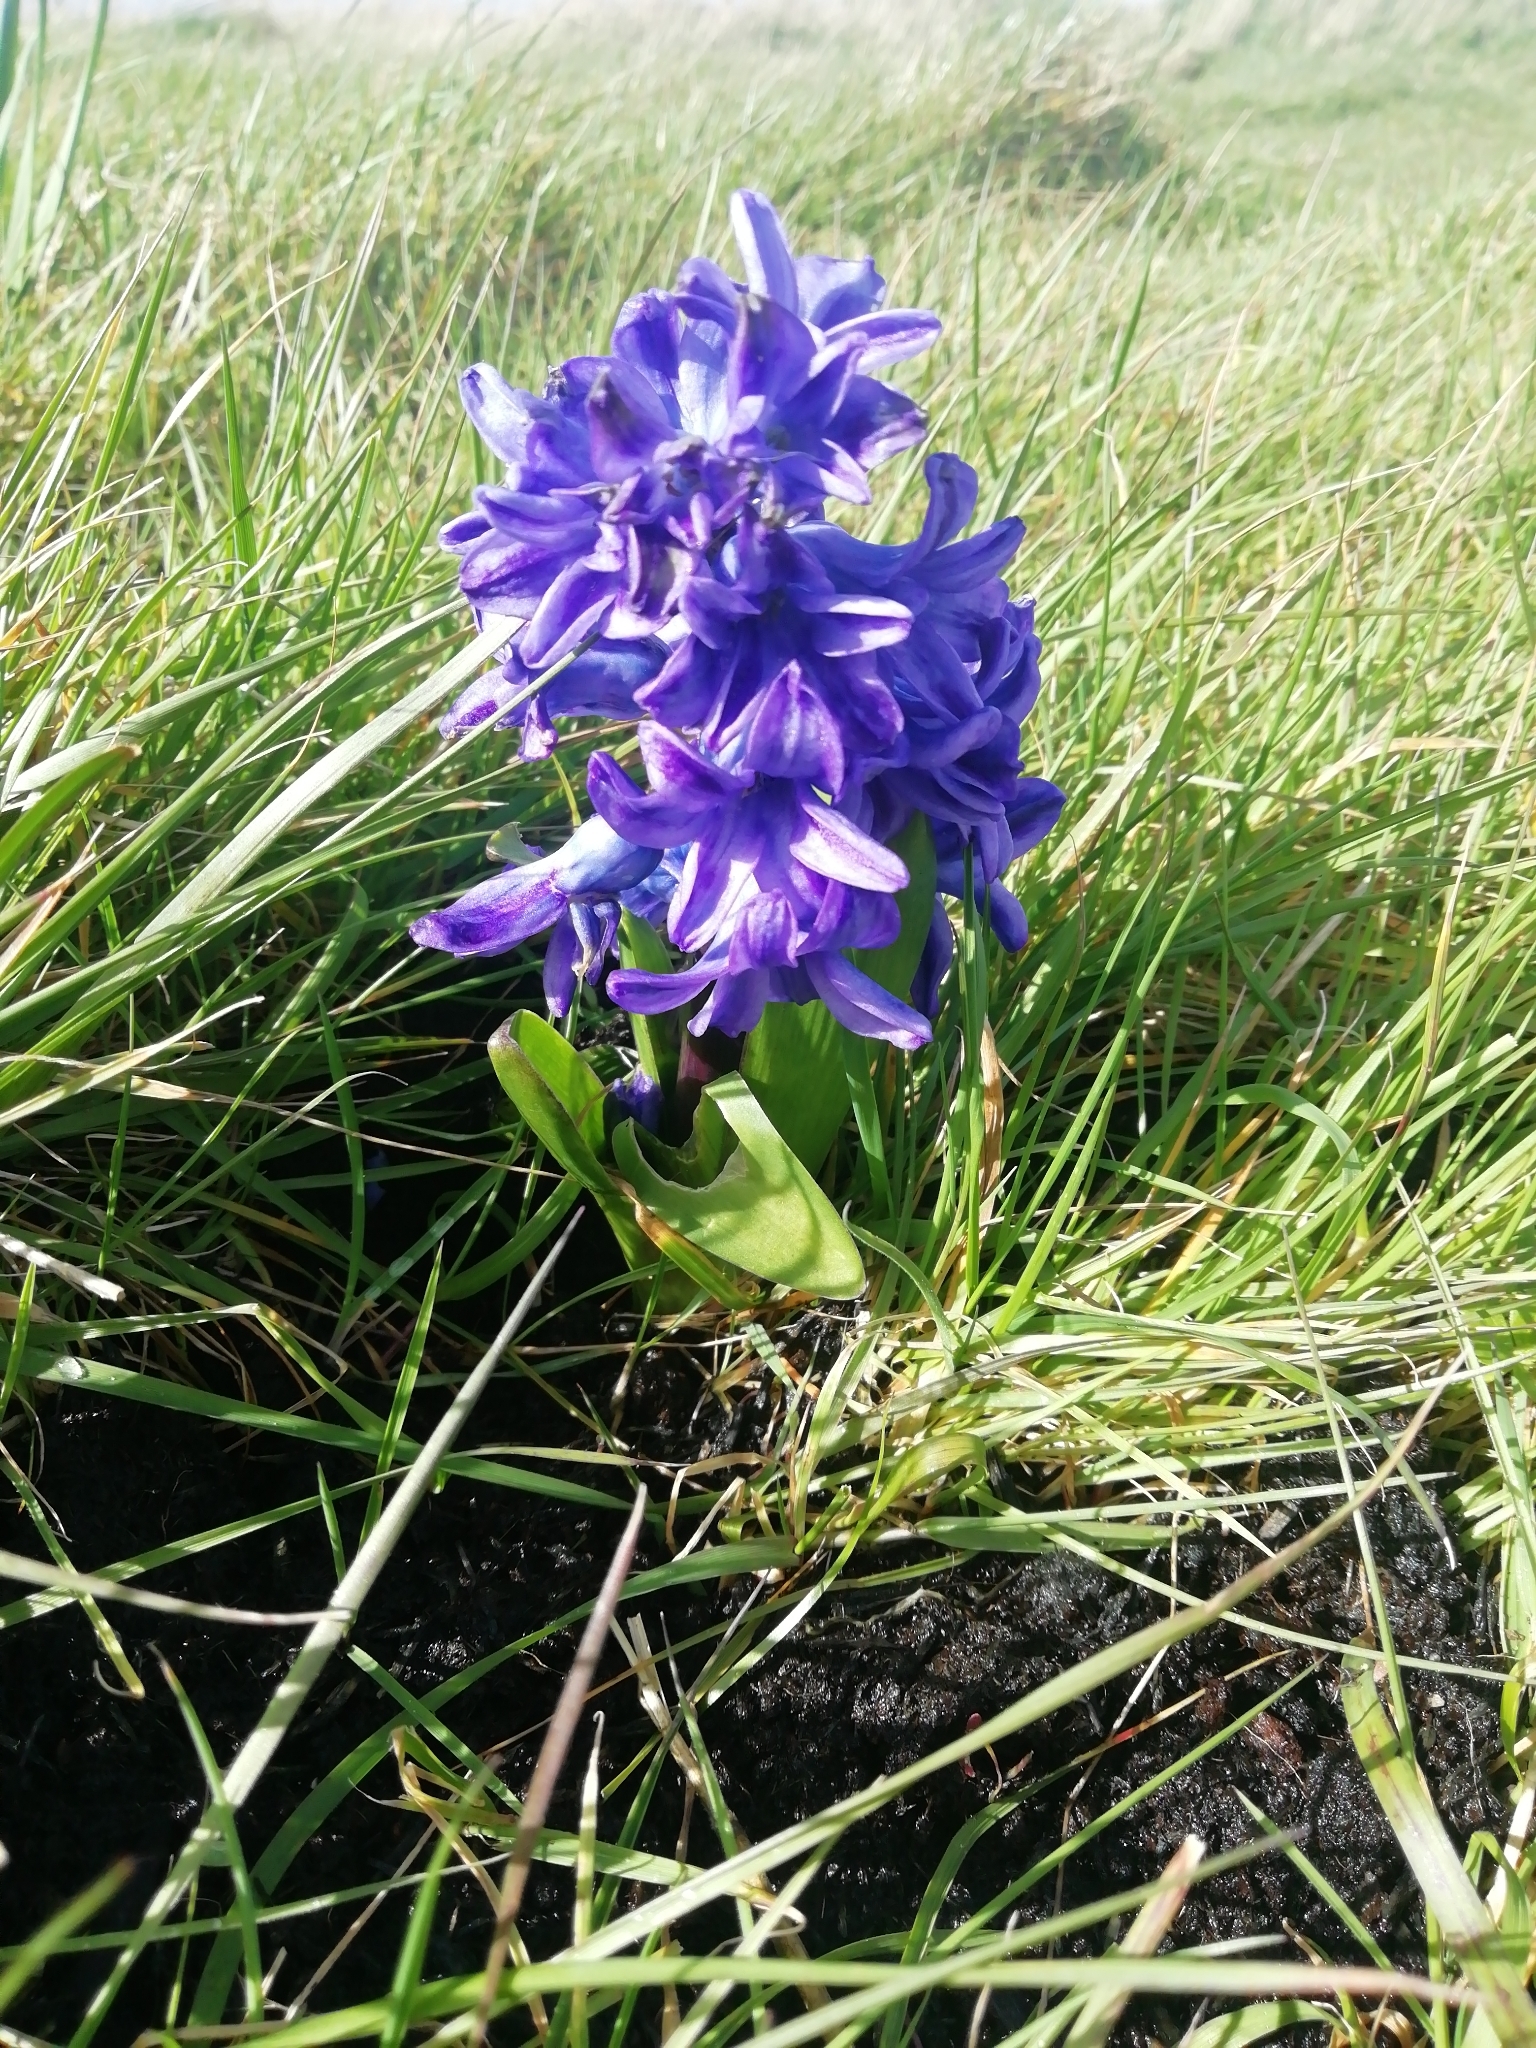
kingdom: Plantae
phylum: Tracheophyta
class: Liliopsida
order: Asparagales
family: Asparagaceae
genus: Hyacinthus
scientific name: Hyacinthus orientalis
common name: Hyacinth
